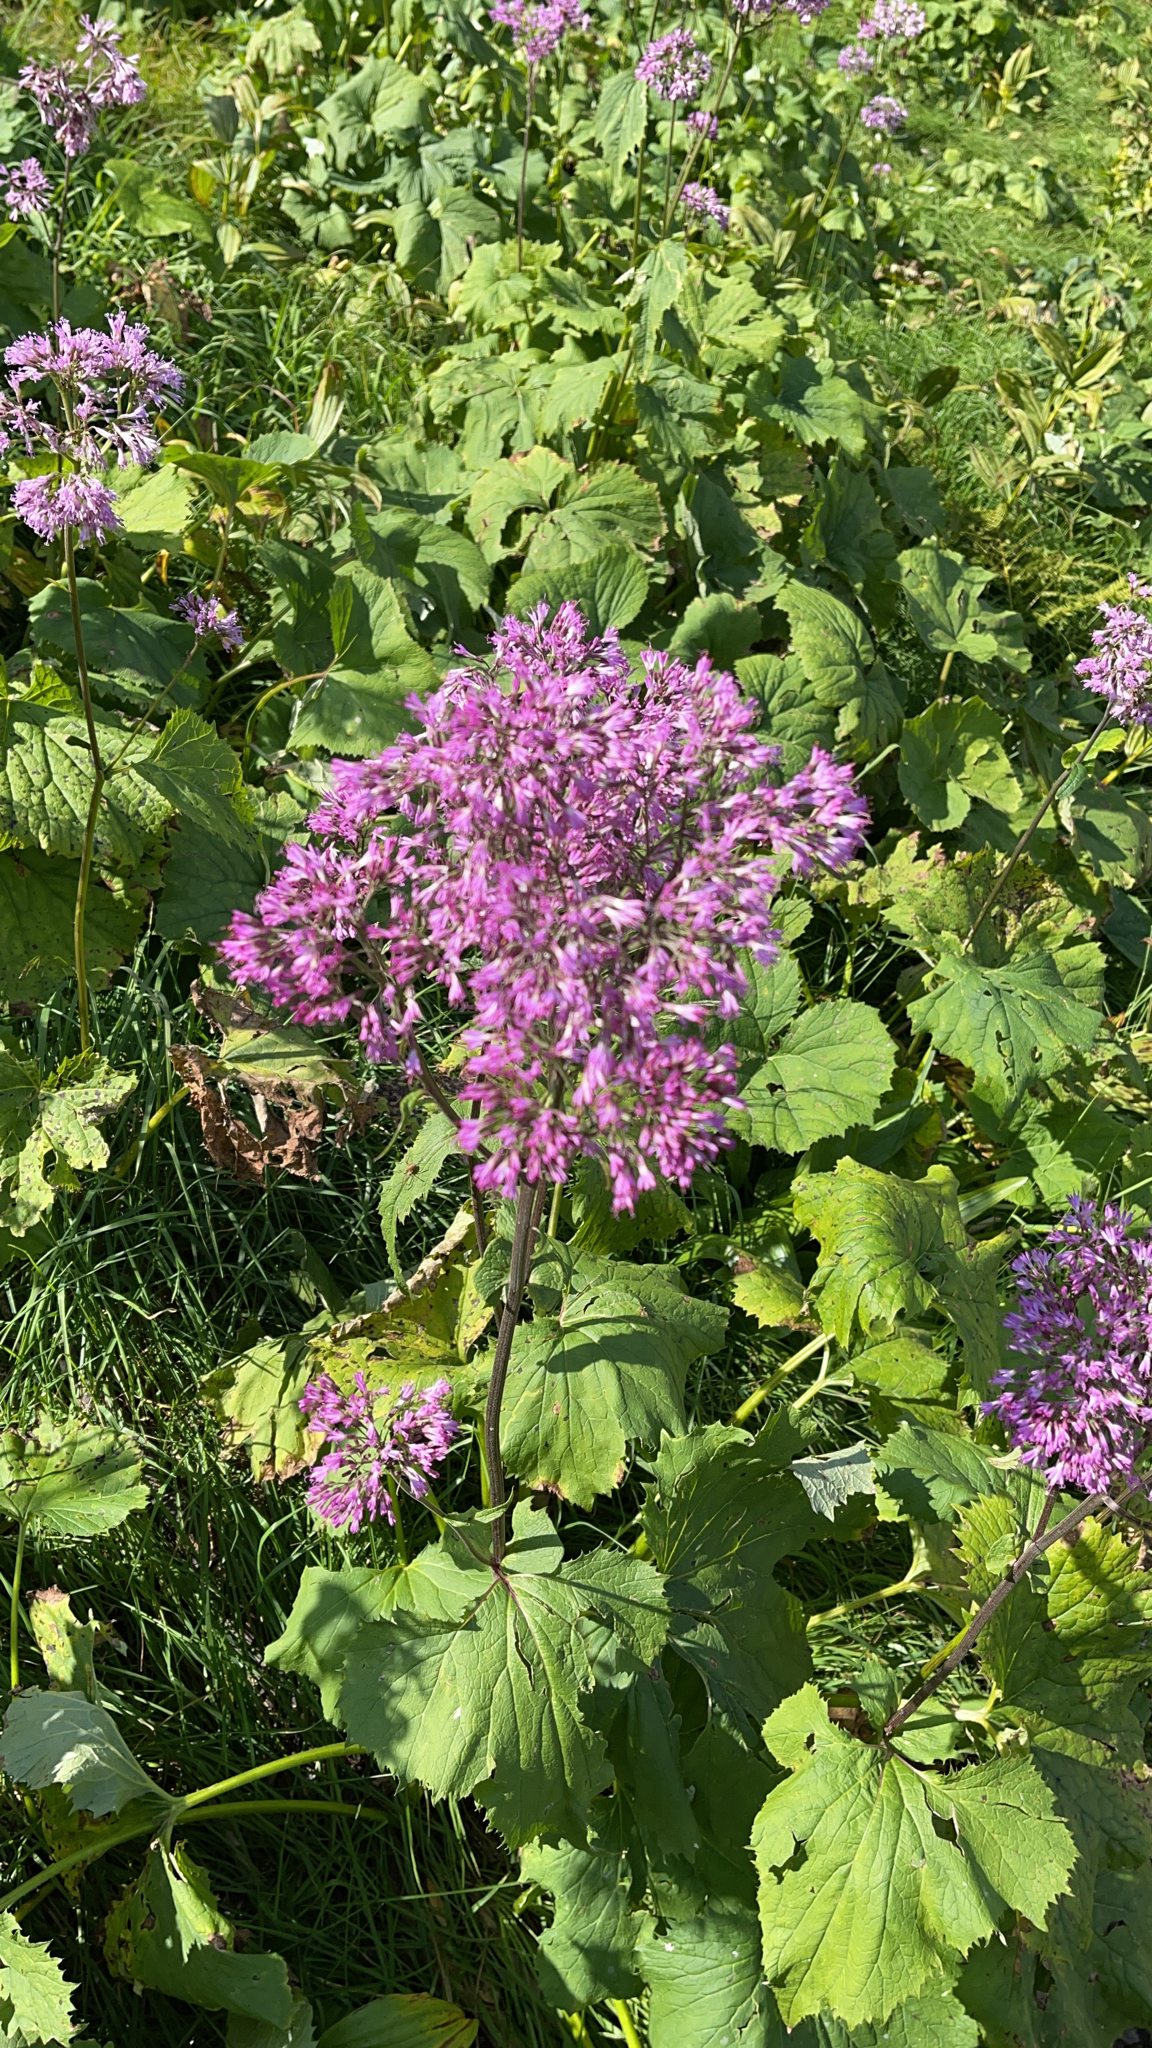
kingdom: Plantae
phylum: Tracheophyta
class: Magnoliopsida
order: Asterales
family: Asteraceae
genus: Adenostyles
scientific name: Adenostyles alliariae
